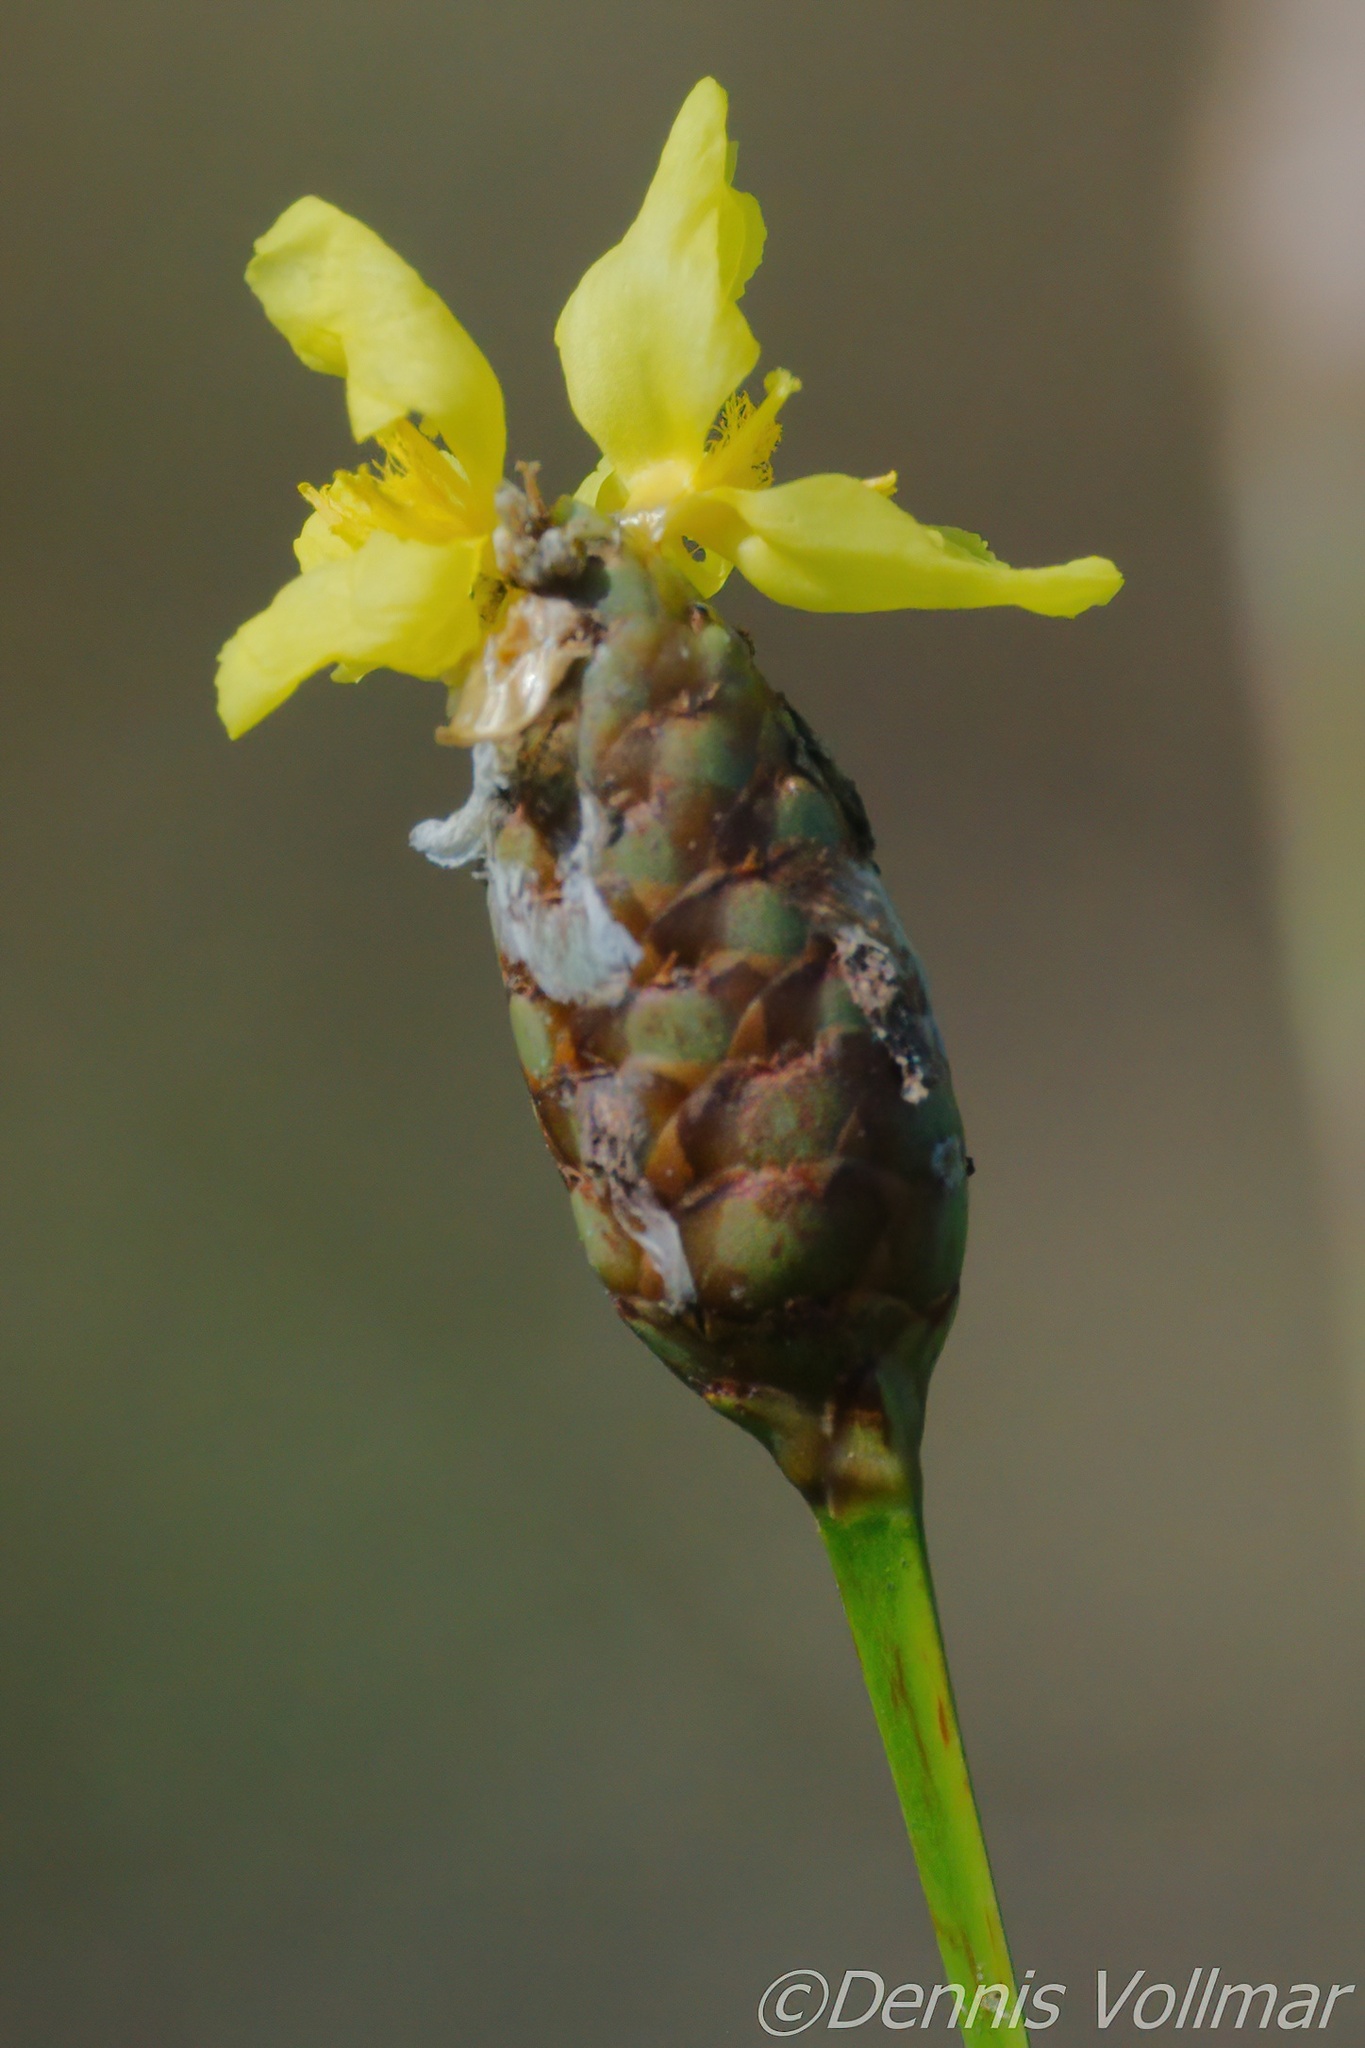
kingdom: Plantae
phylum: Tracheophyta
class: Liliopsida
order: Poales
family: Xyridaceae
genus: Xyris
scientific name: Xyris smalliana
